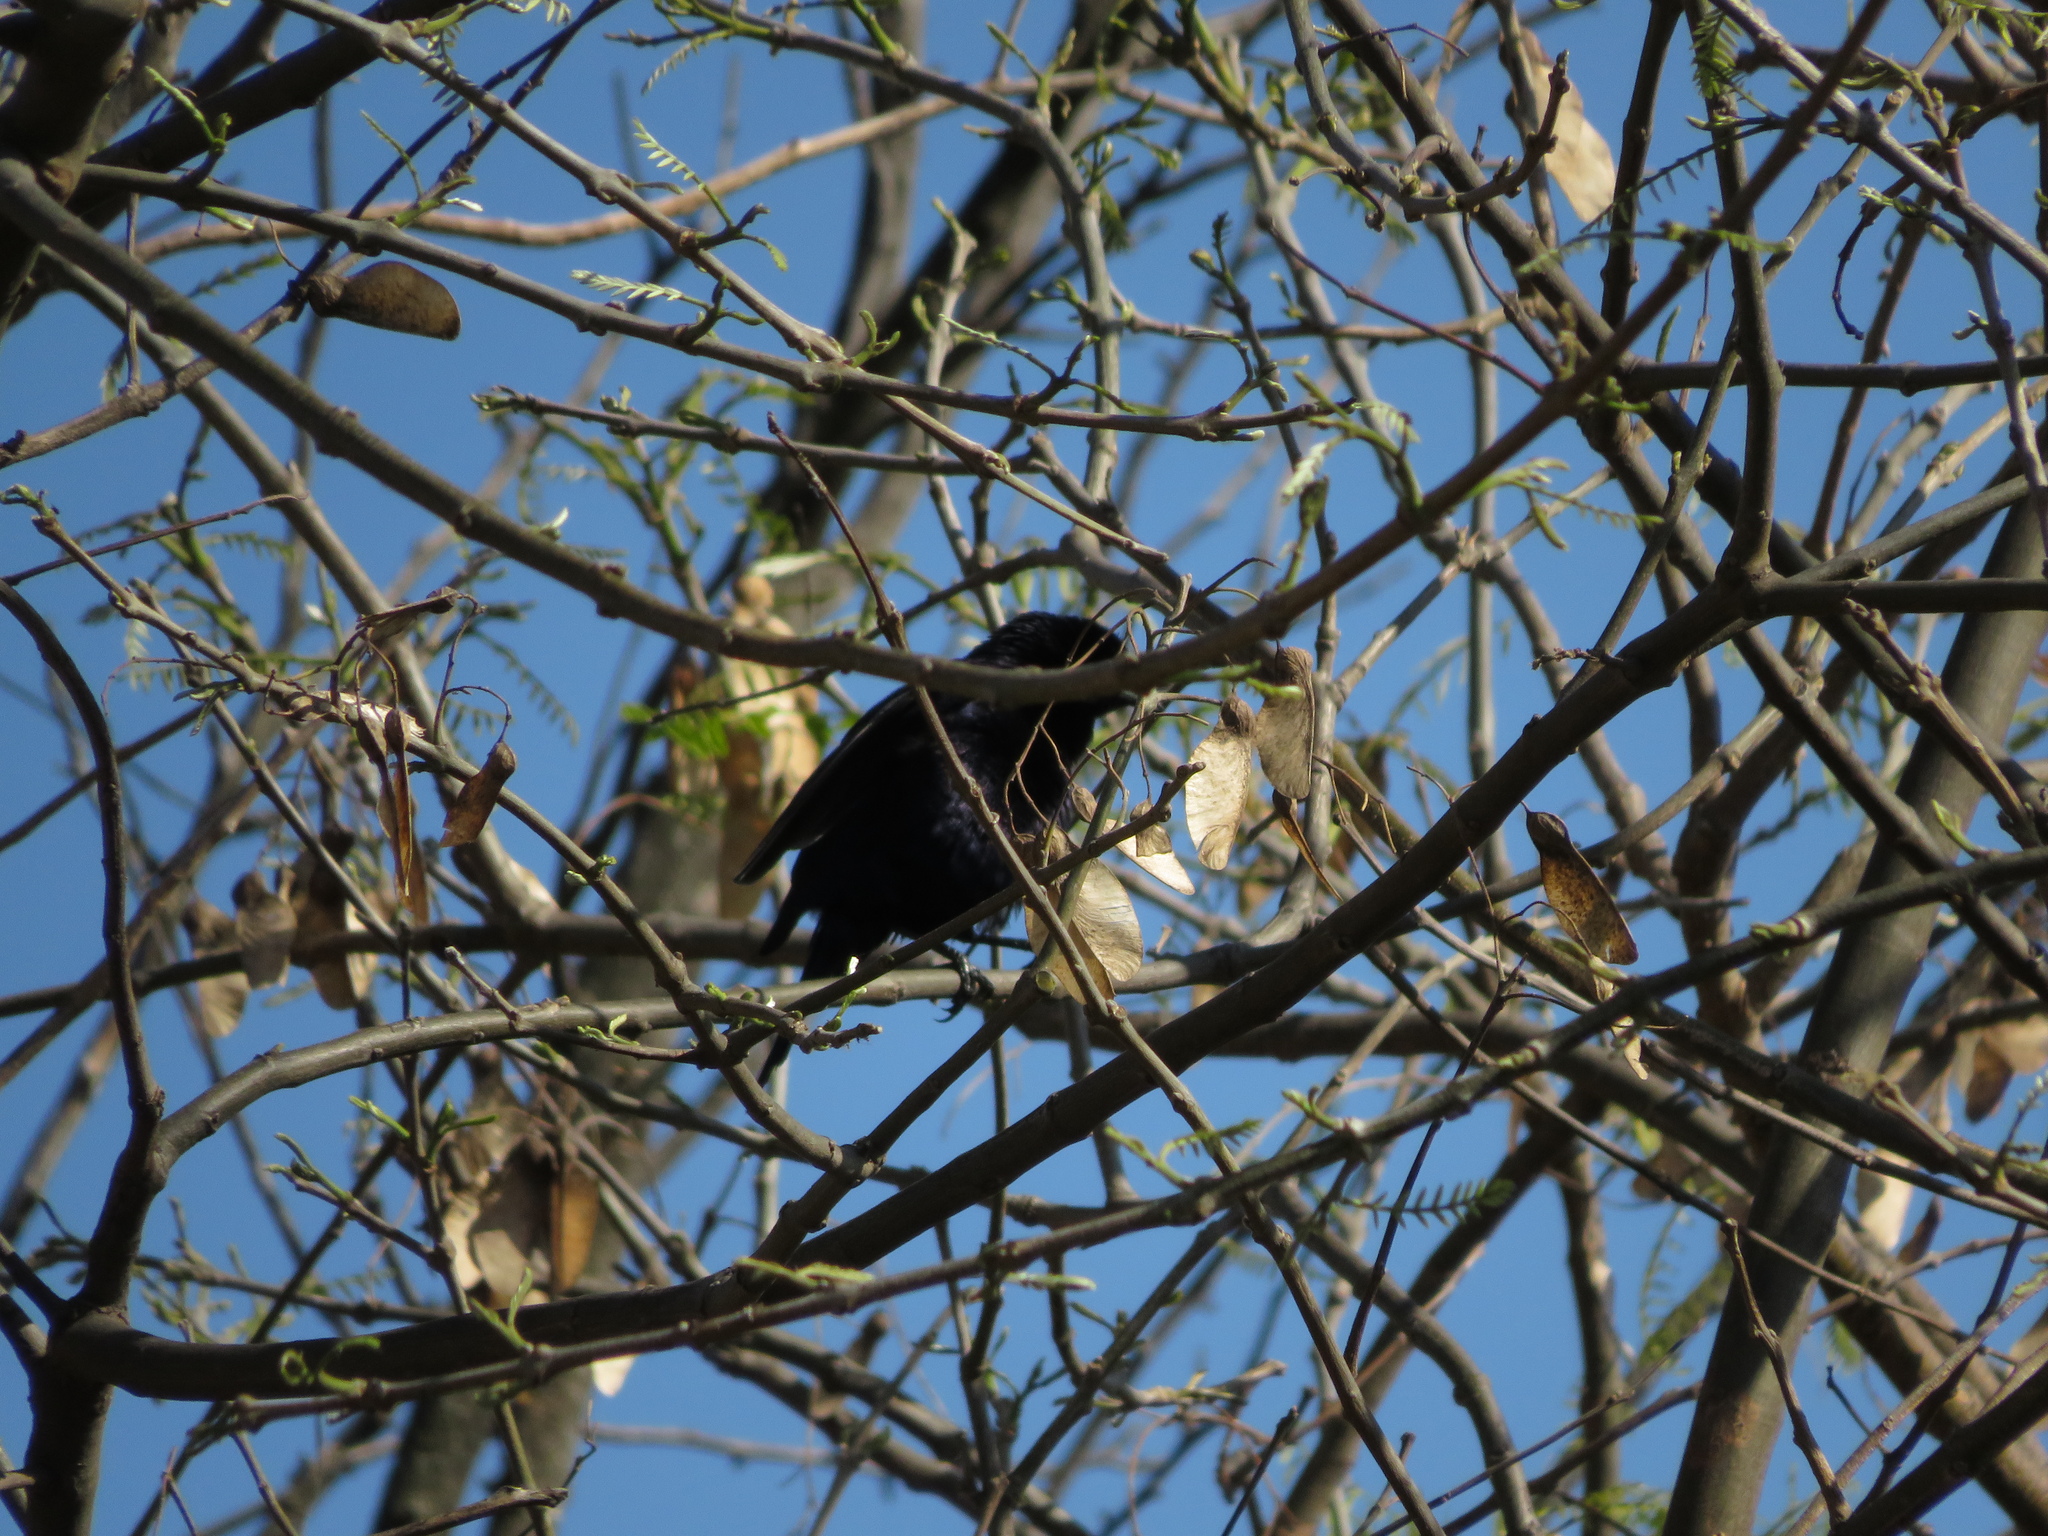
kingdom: Animalia
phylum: Chordata
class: Aves
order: Passeriformes
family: Icteridae
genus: Molothrus
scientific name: Molothrus bonariensis
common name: Shiny cowbird
